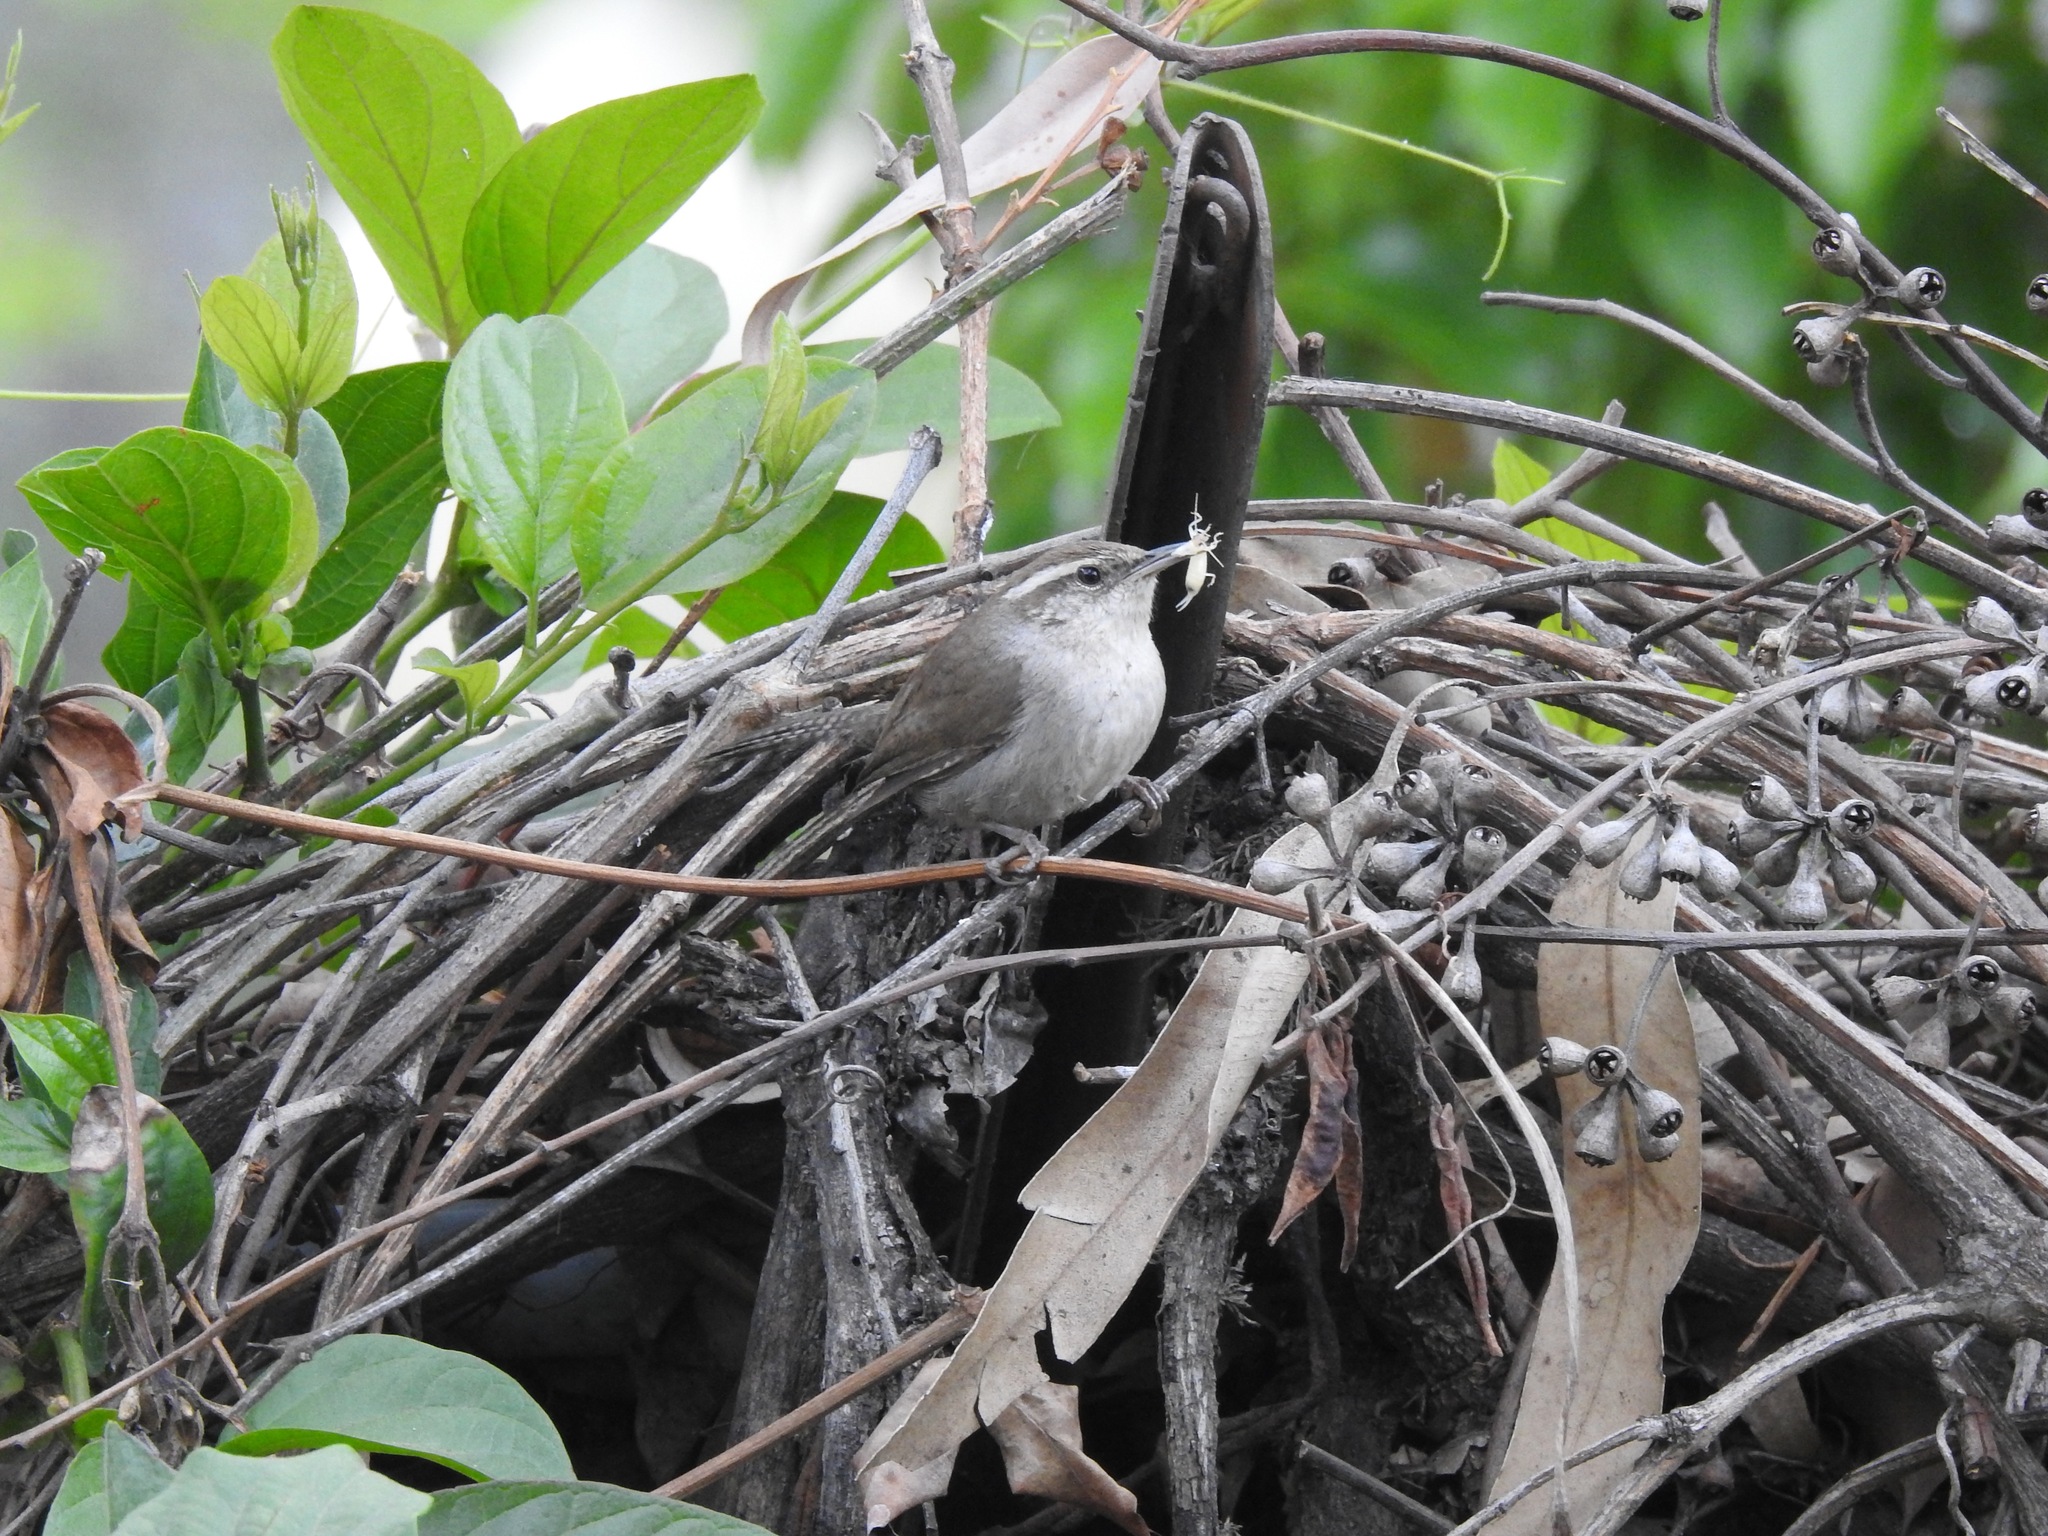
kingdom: Animalia
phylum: Chordata
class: Aves
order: Passeriformes
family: Troglodytidae
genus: Thryomanes
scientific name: Thryomanes bewickii
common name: Bewick's wren
